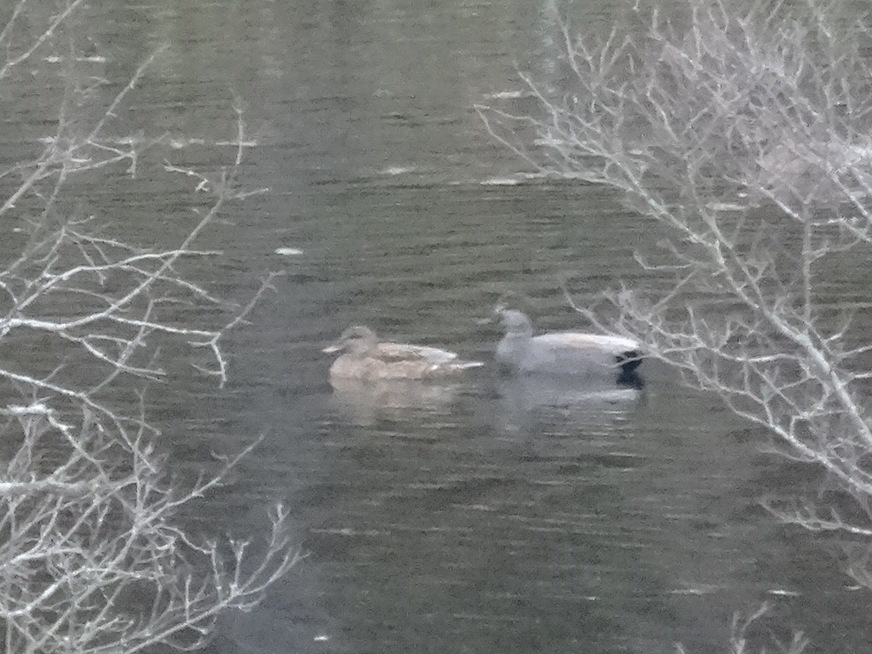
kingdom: Animalia
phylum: Chordata
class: Aves
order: Anseriformes
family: Anatidae
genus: Mareca
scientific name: Mareca strepera
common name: Gadwall
